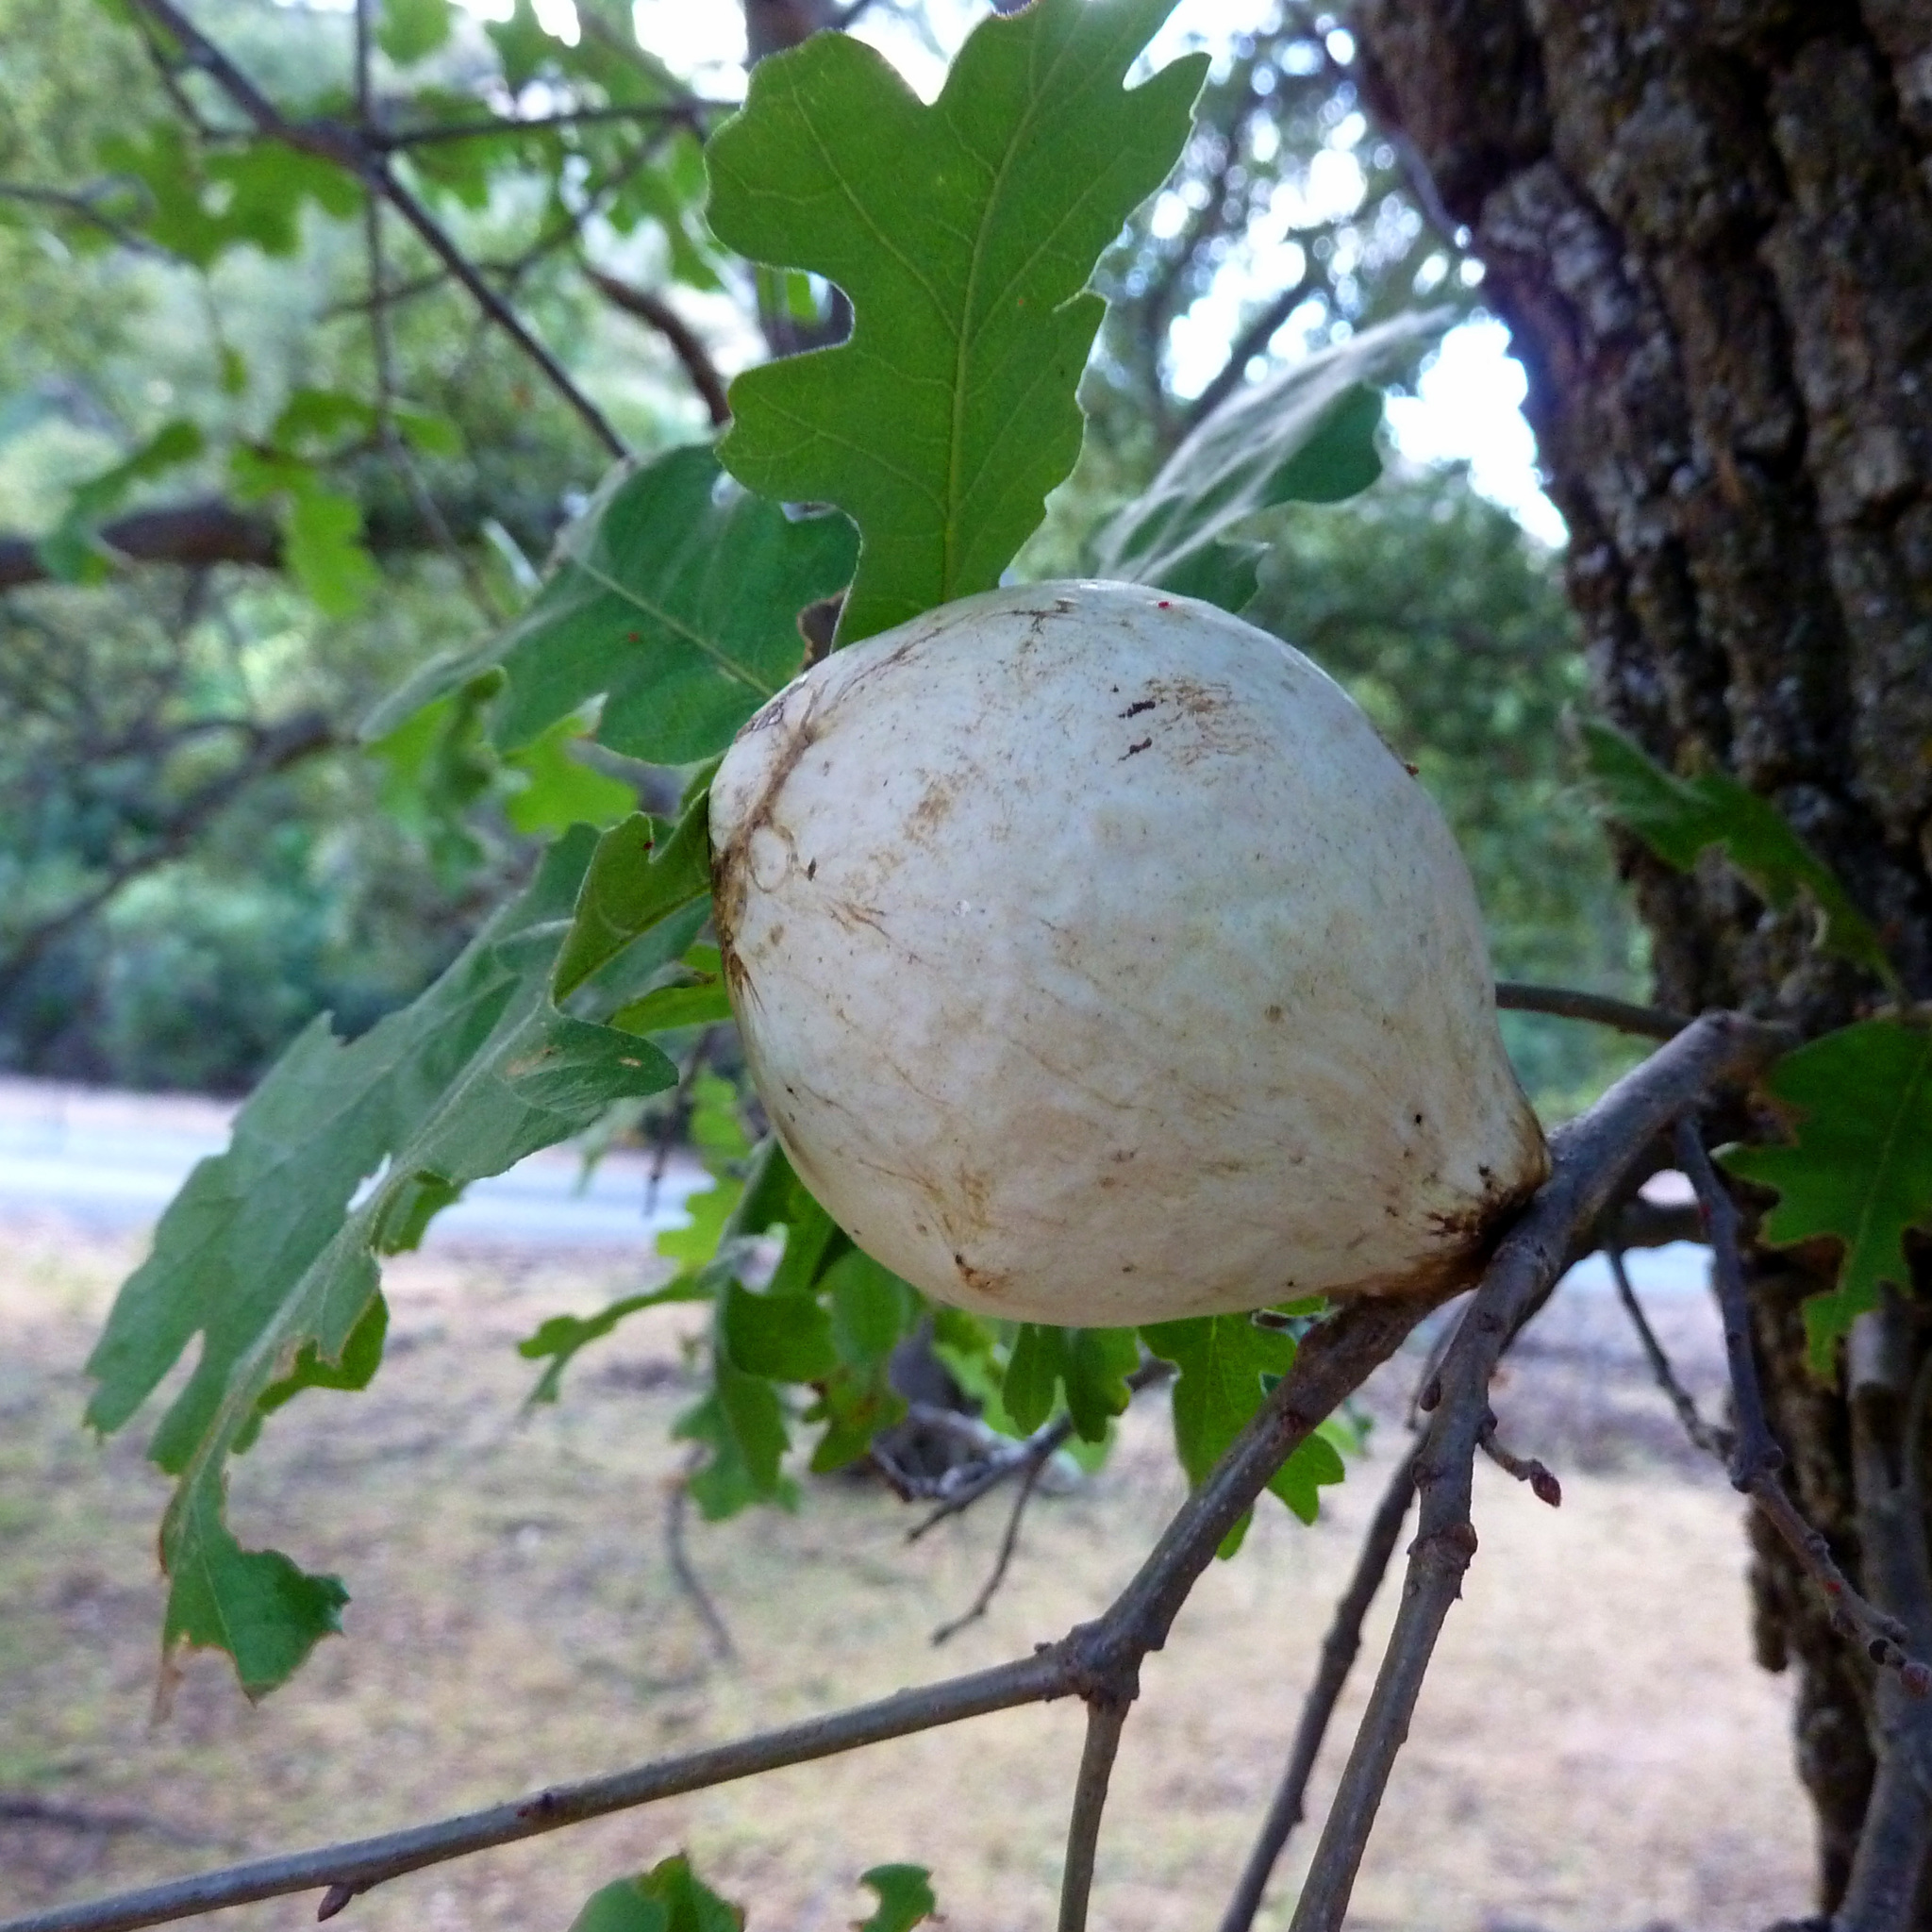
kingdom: Animalia
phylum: Arthropoda
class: Insecta
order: Hymenoptera
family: Cynipidae
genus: Andricus
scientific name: Andricus quercuscalifornicus
